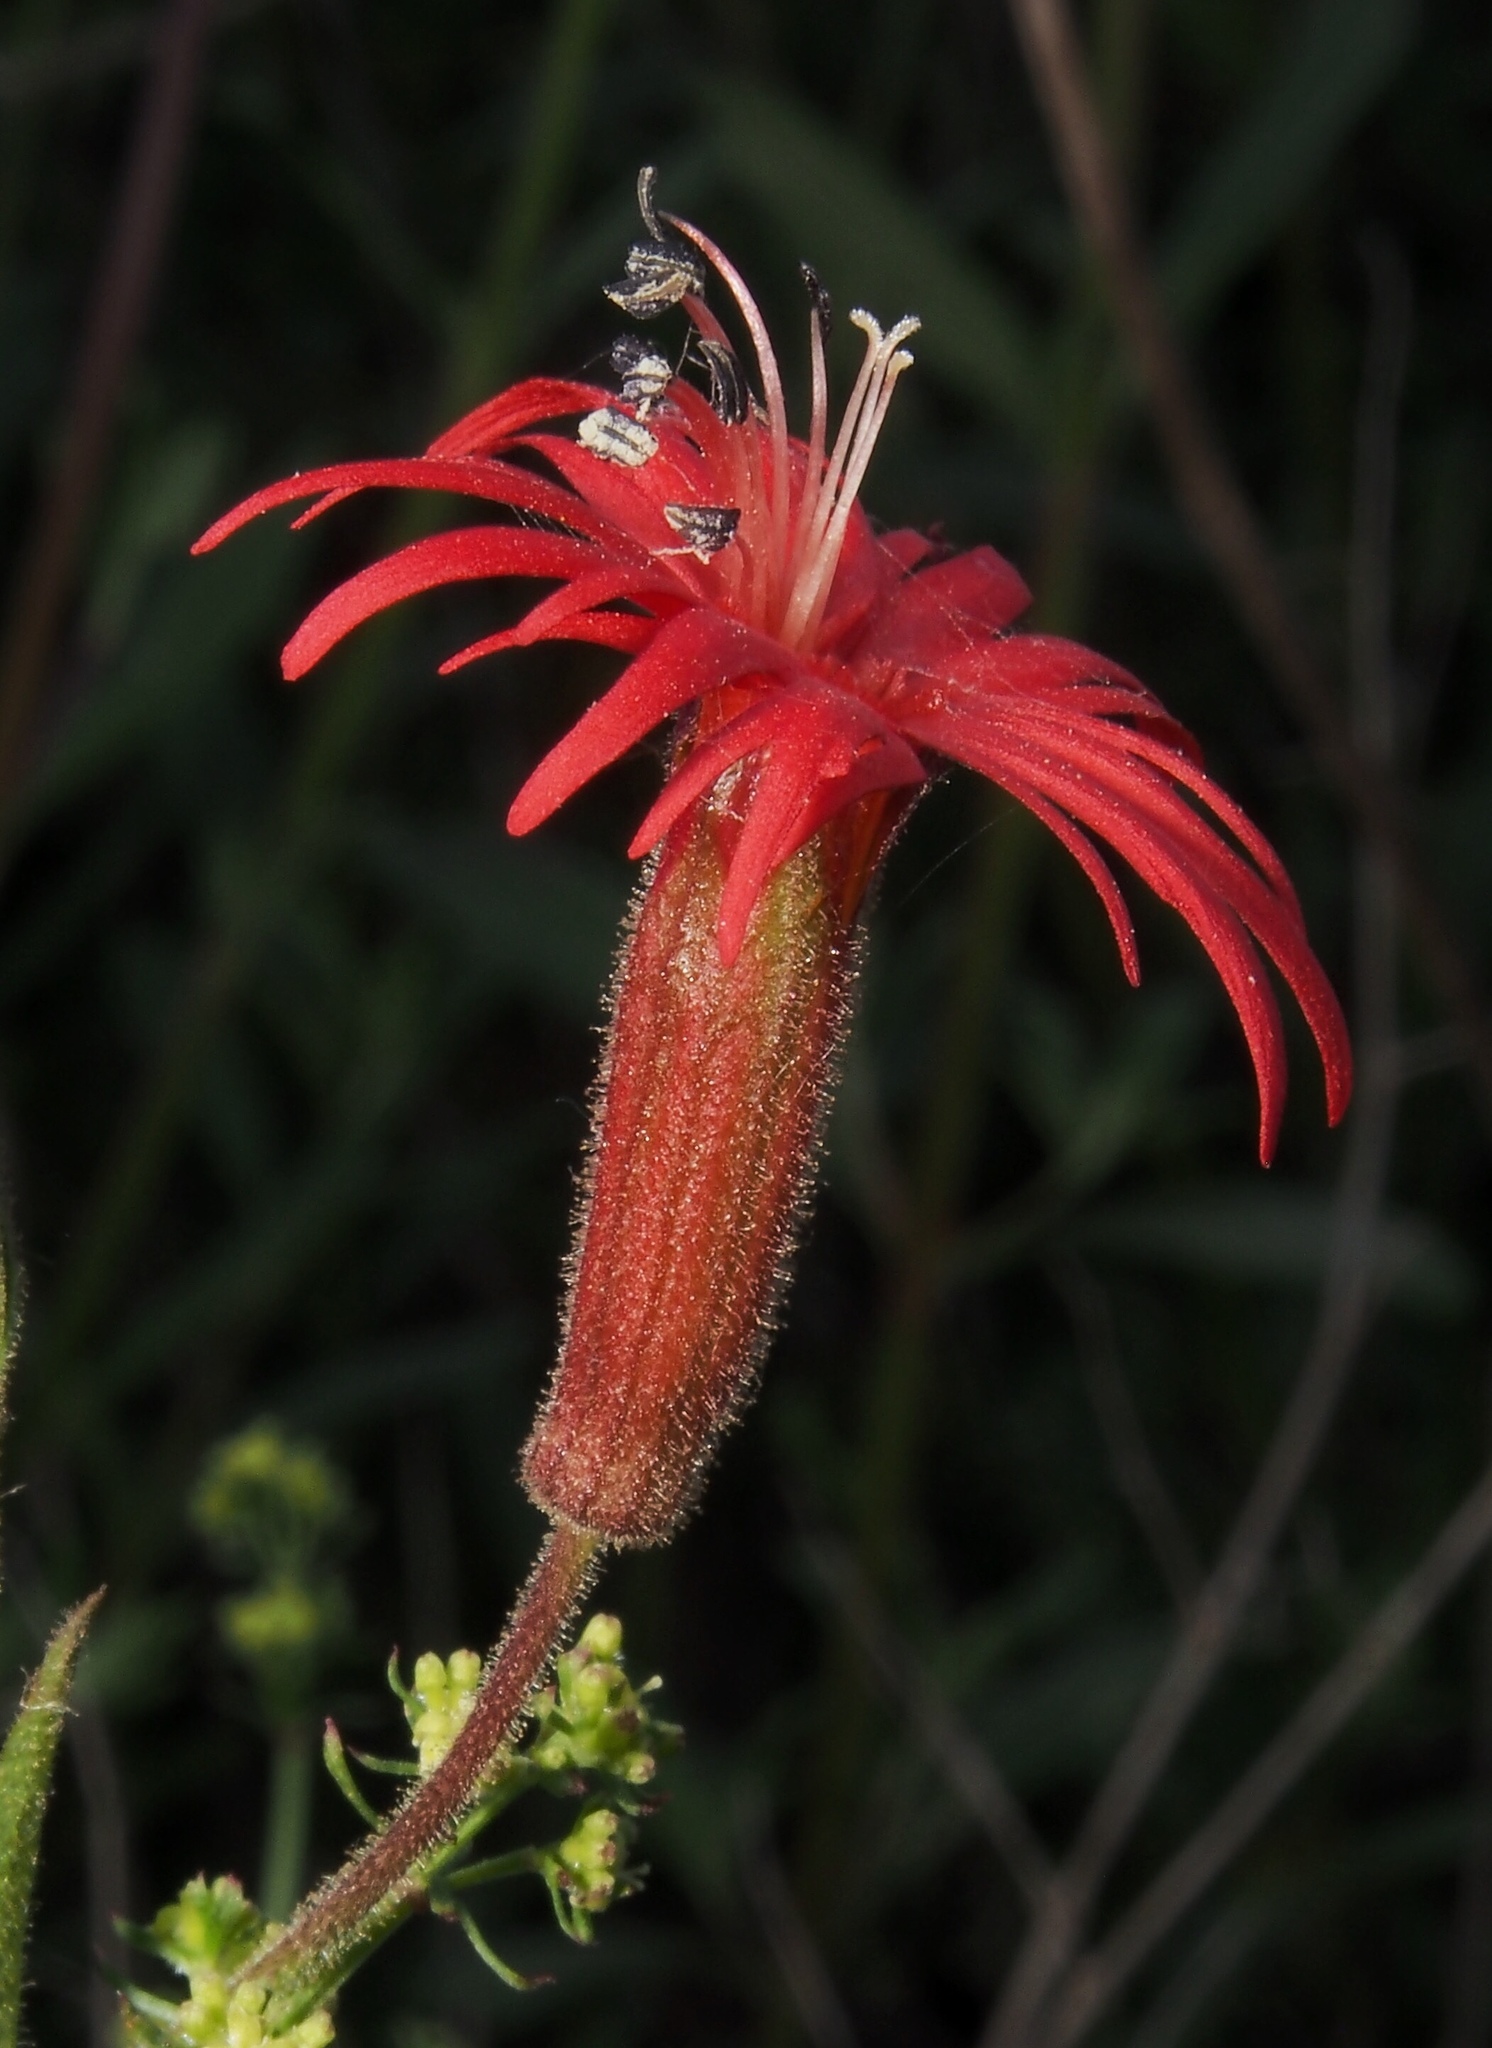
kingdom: Plantae
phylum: Tracheophyta
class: Magnoliopsida
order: Caryophyllales
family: Caryophyllaceae
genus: Silene
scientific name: Silene laciniata
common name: Indian-pink
